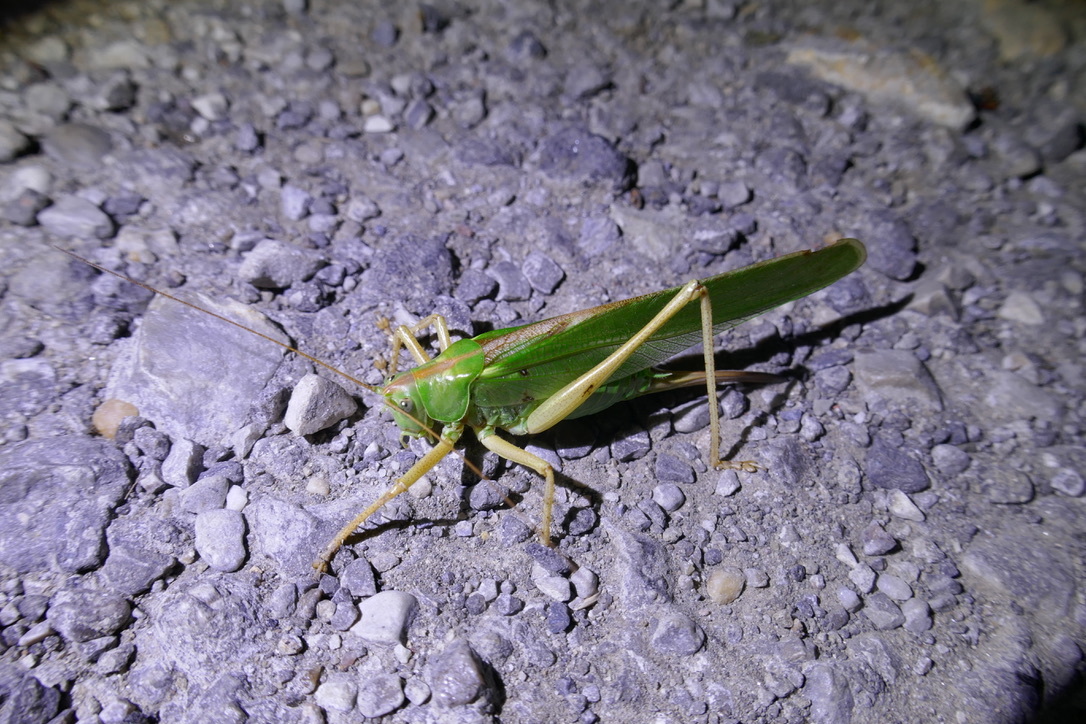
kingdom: Animalia
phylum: Arthropoda
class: Insecta
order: Orthoptera
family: Tettigoniidae
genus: Tettigonia
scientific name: Tettigonia viridissima
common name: Great green bush-cricket
